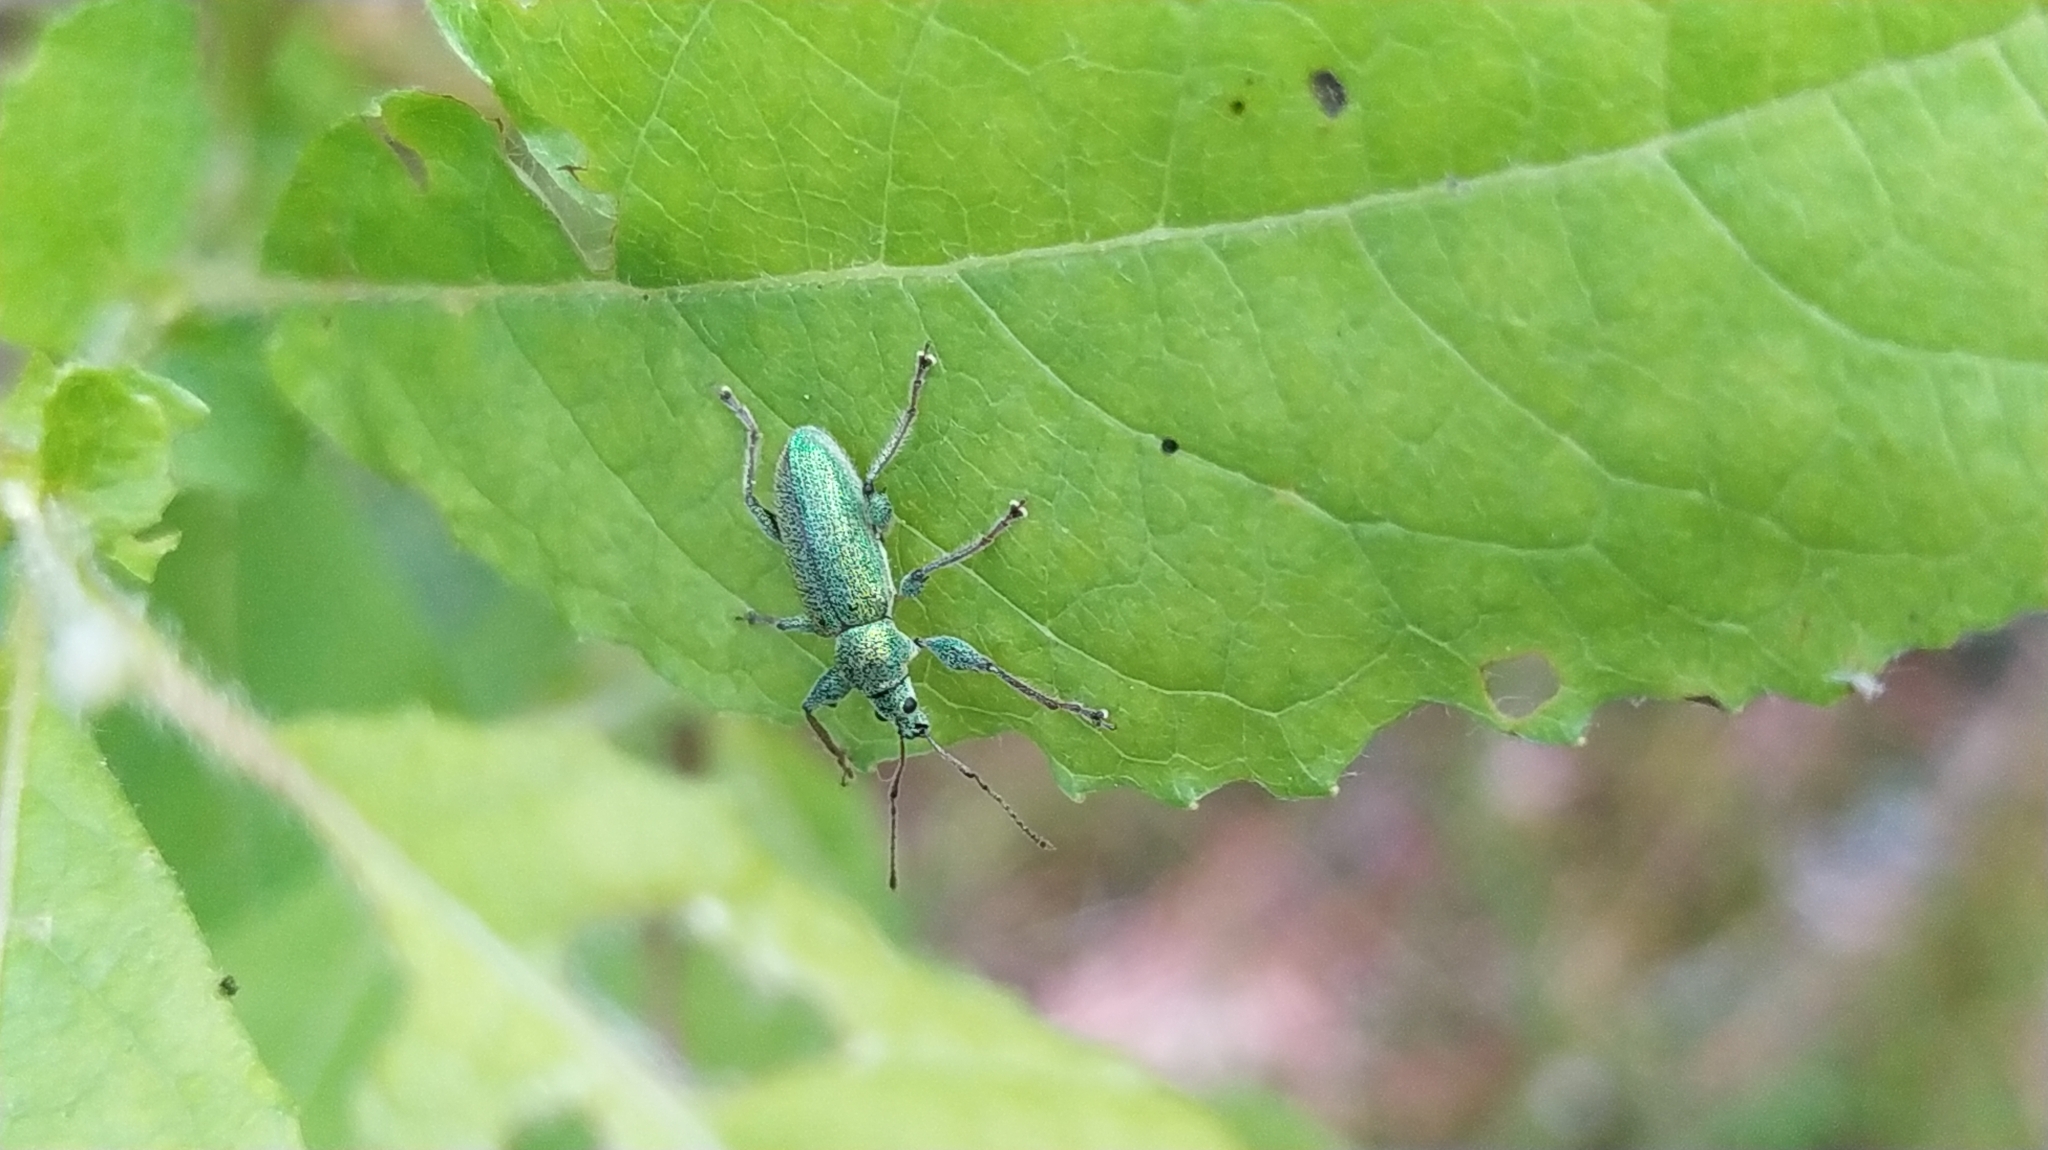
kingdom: Animalia
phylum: Arthropoda
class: Insecta
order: Coleoptera
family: Curculionidae
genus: Phyllobius
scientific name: Phyllobius arborator
